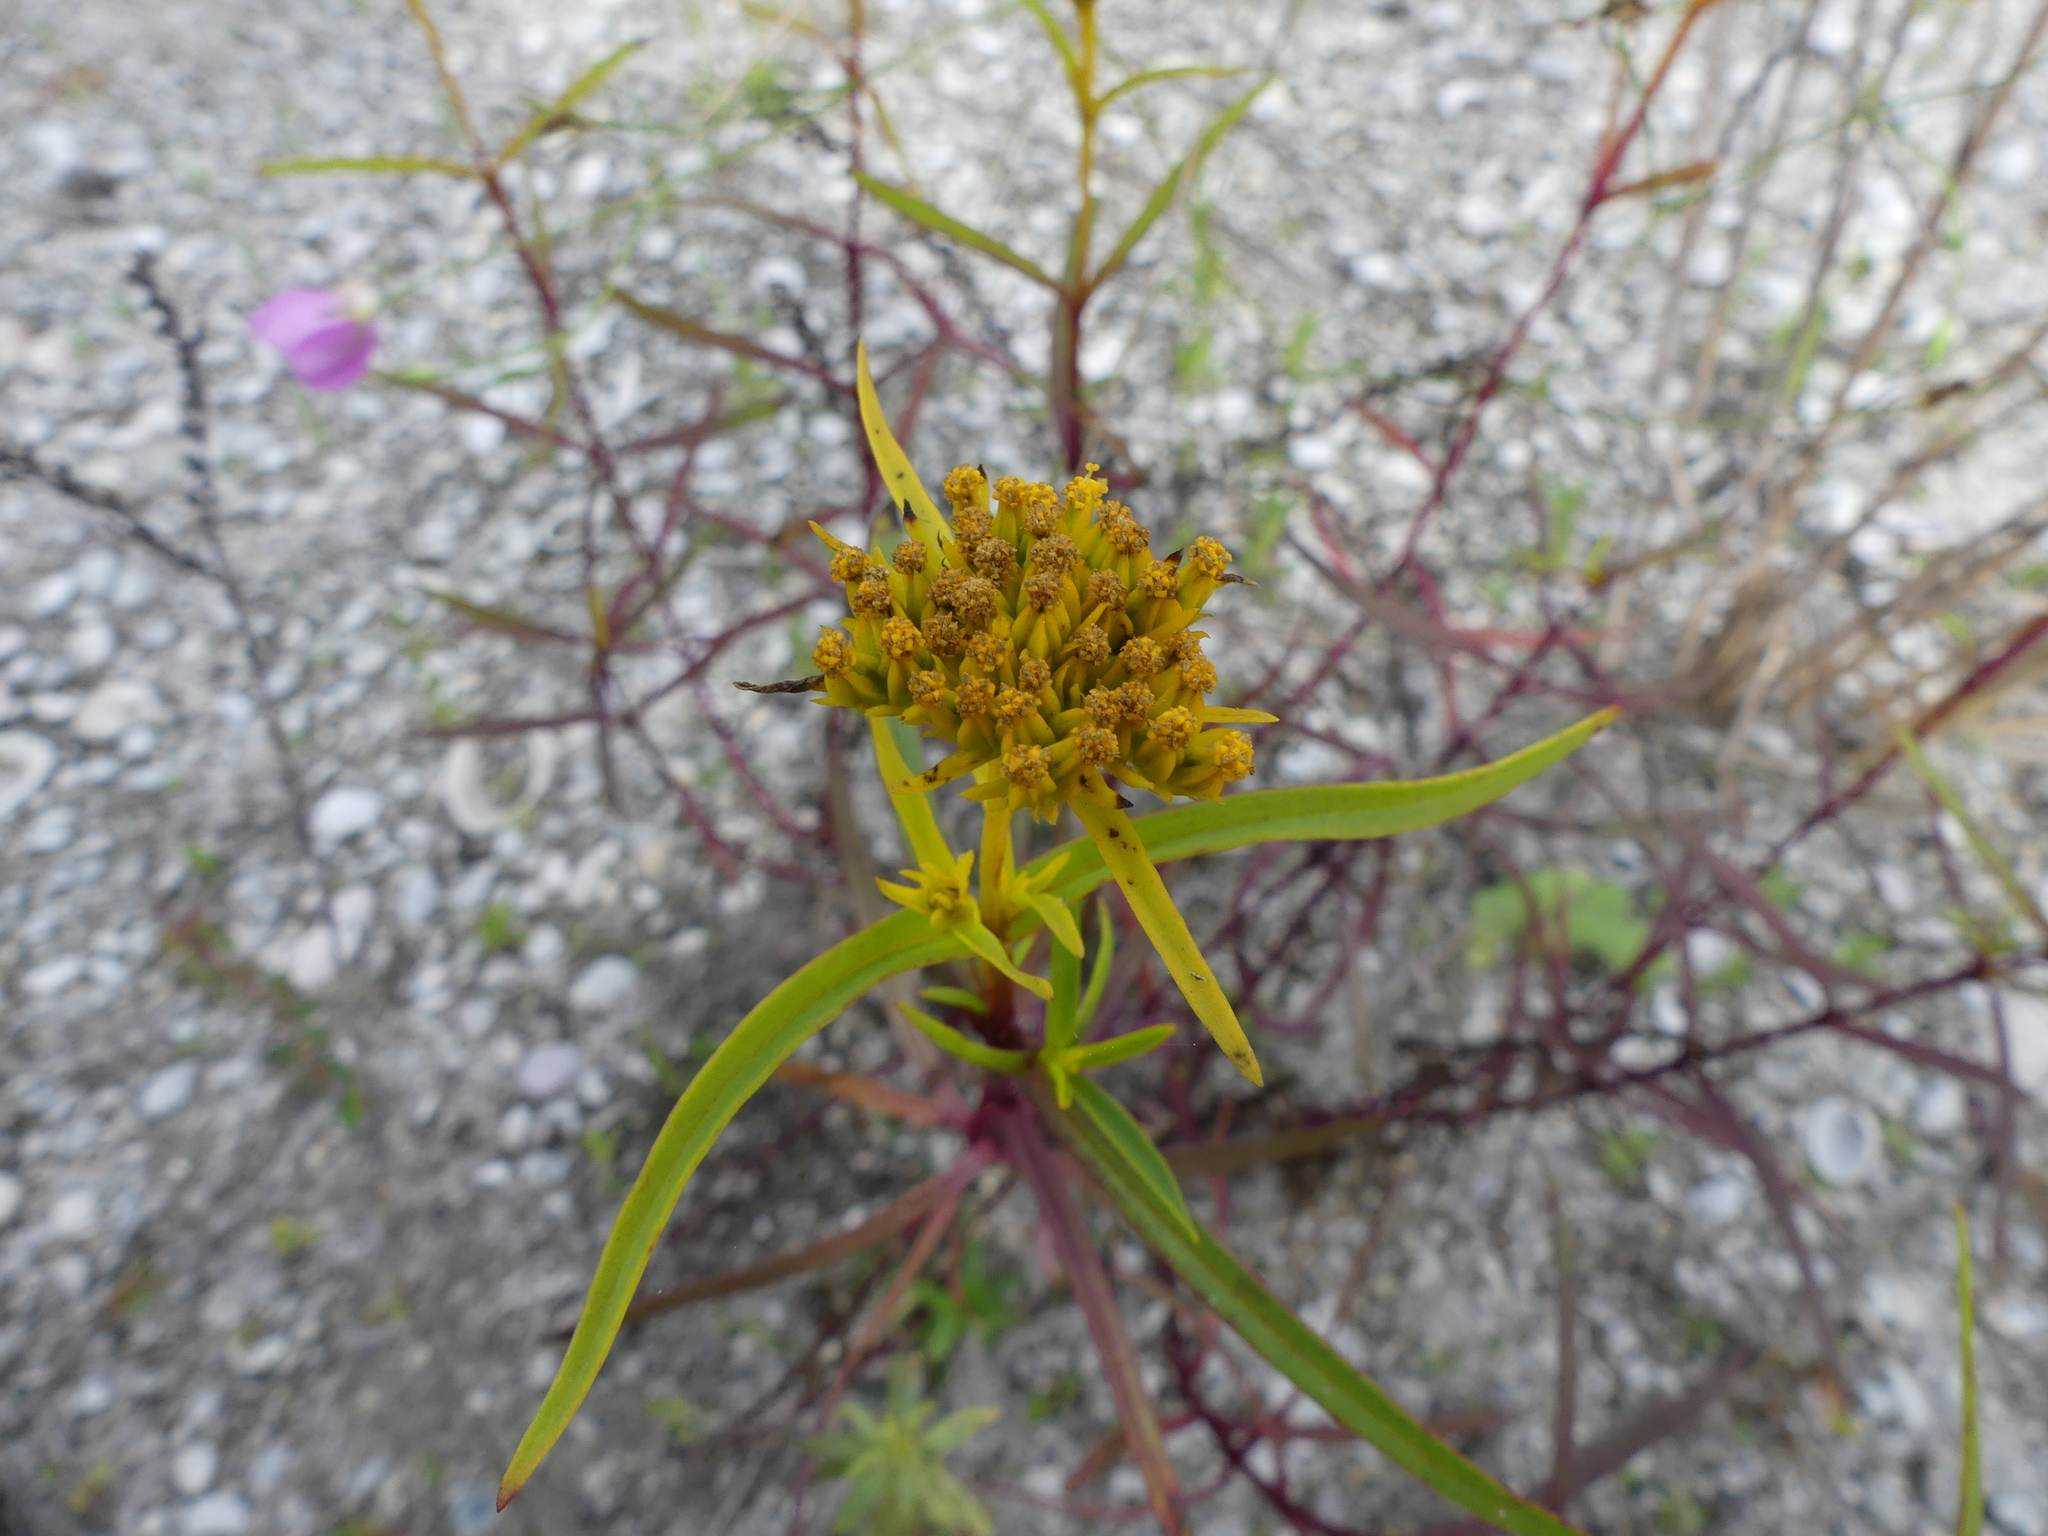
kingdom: Plantae
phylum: Tracheophyta
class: Magnoliopsida
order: Asterales
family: Asteraceae
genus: Flaveria
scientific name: Flaveria floridana
